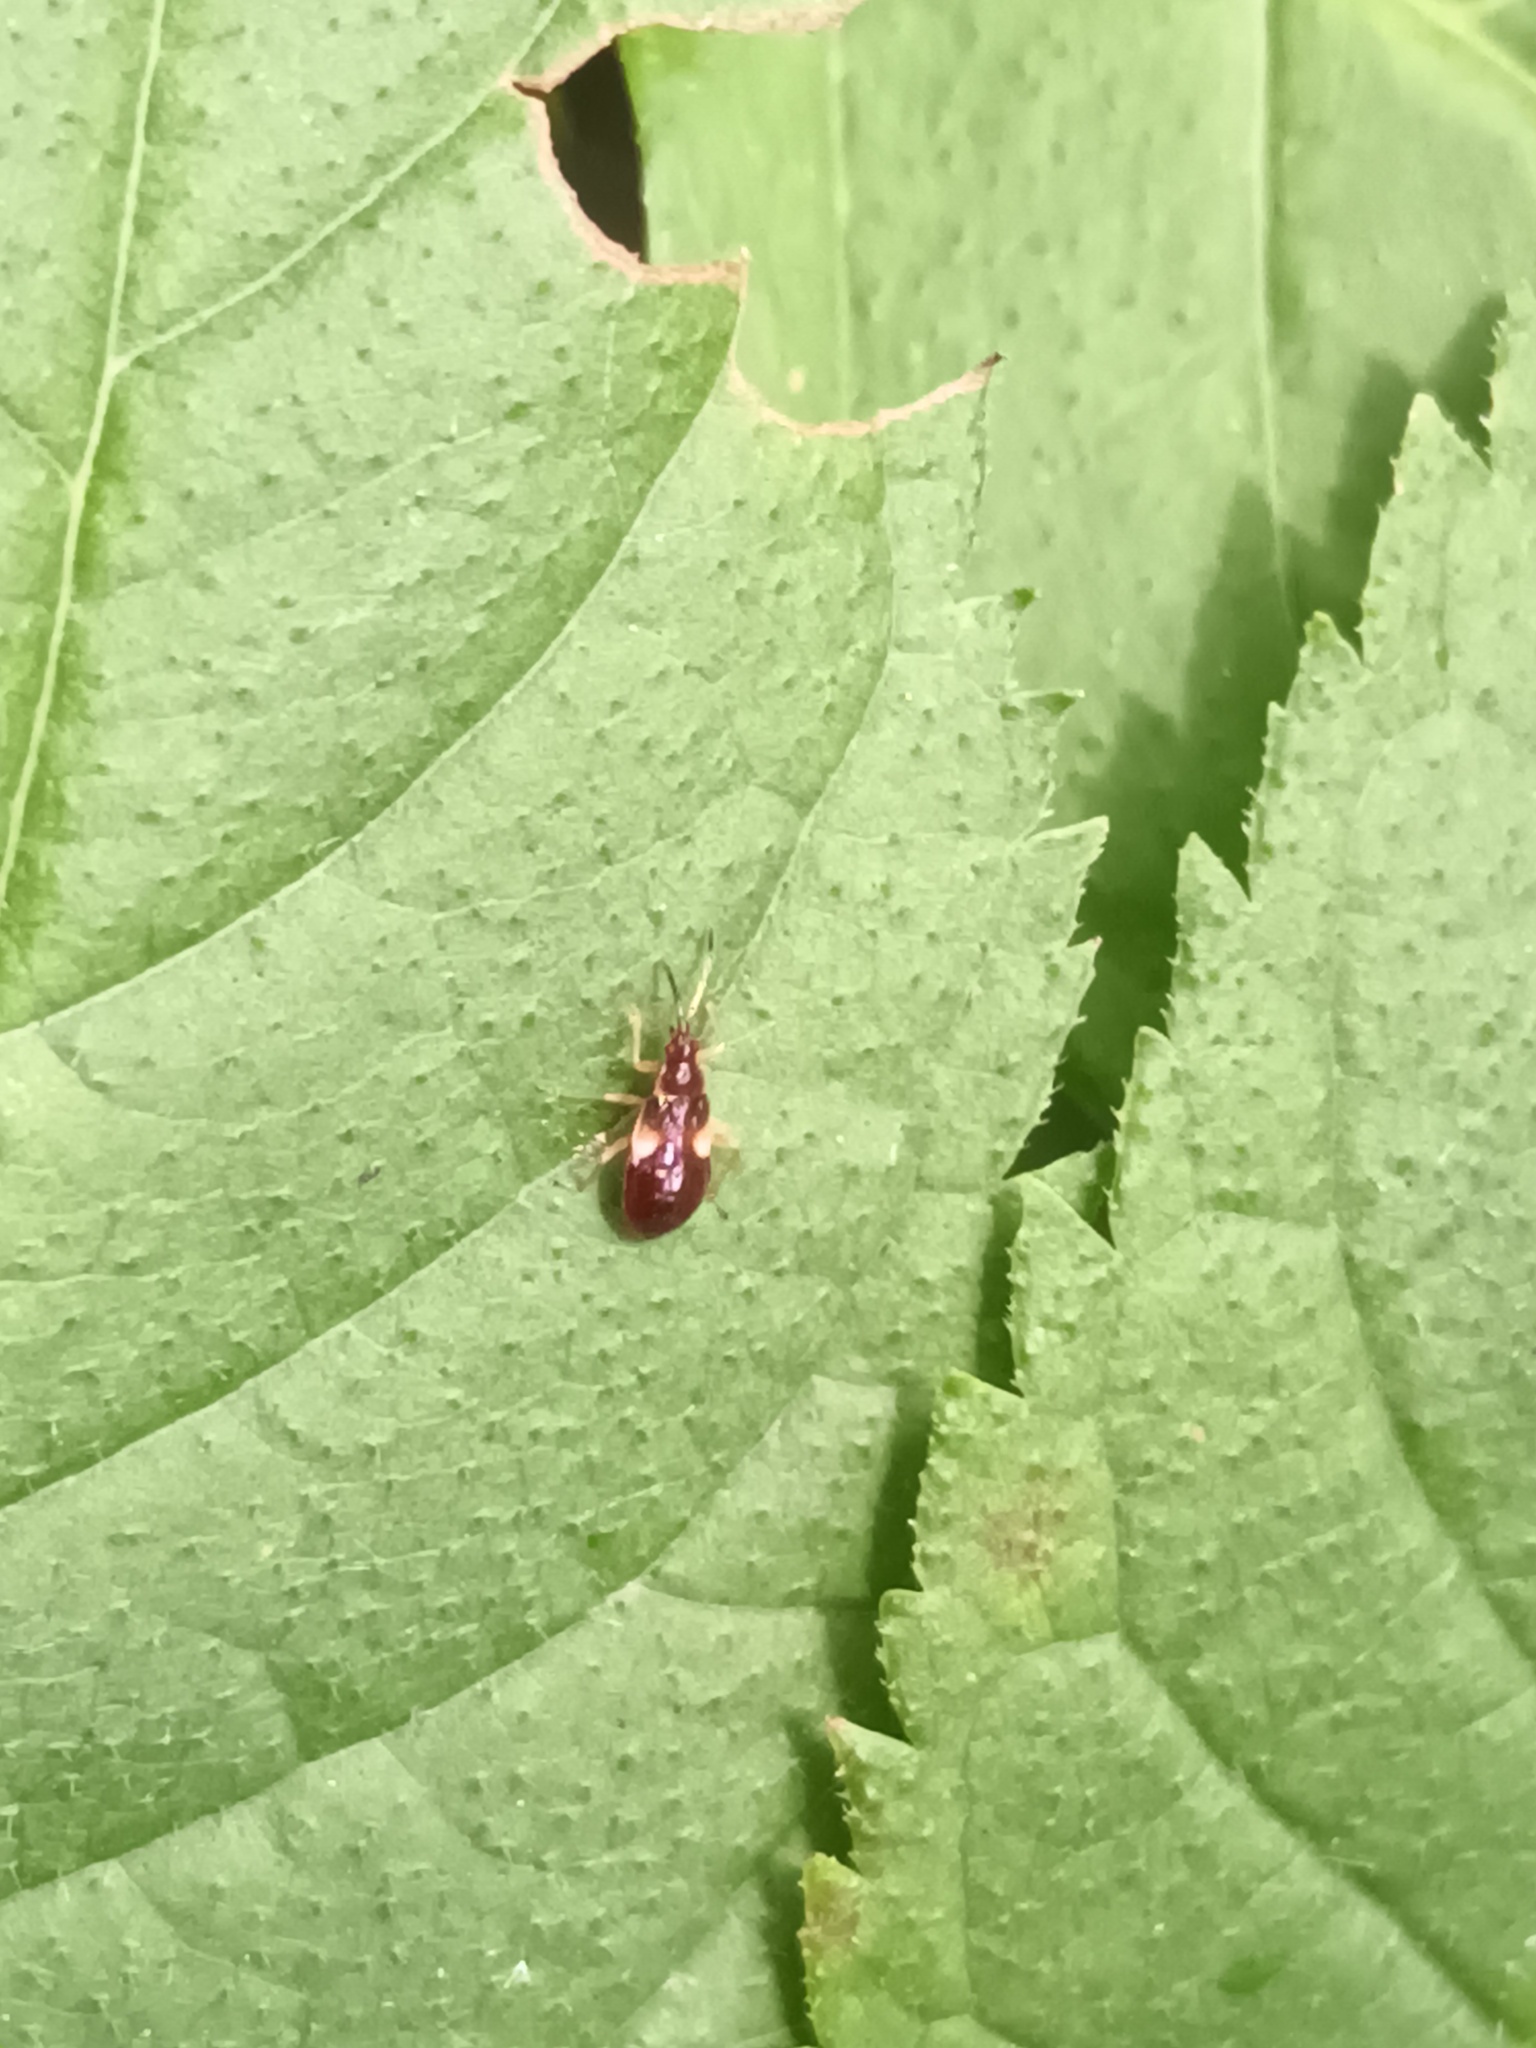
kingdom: Animalia
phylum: Arthropoda
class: Insecta
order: Hemiptera
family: Anthocoridae
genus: Anthocoris
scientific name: Anthocoris nemorum
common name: Minute pirate bug
